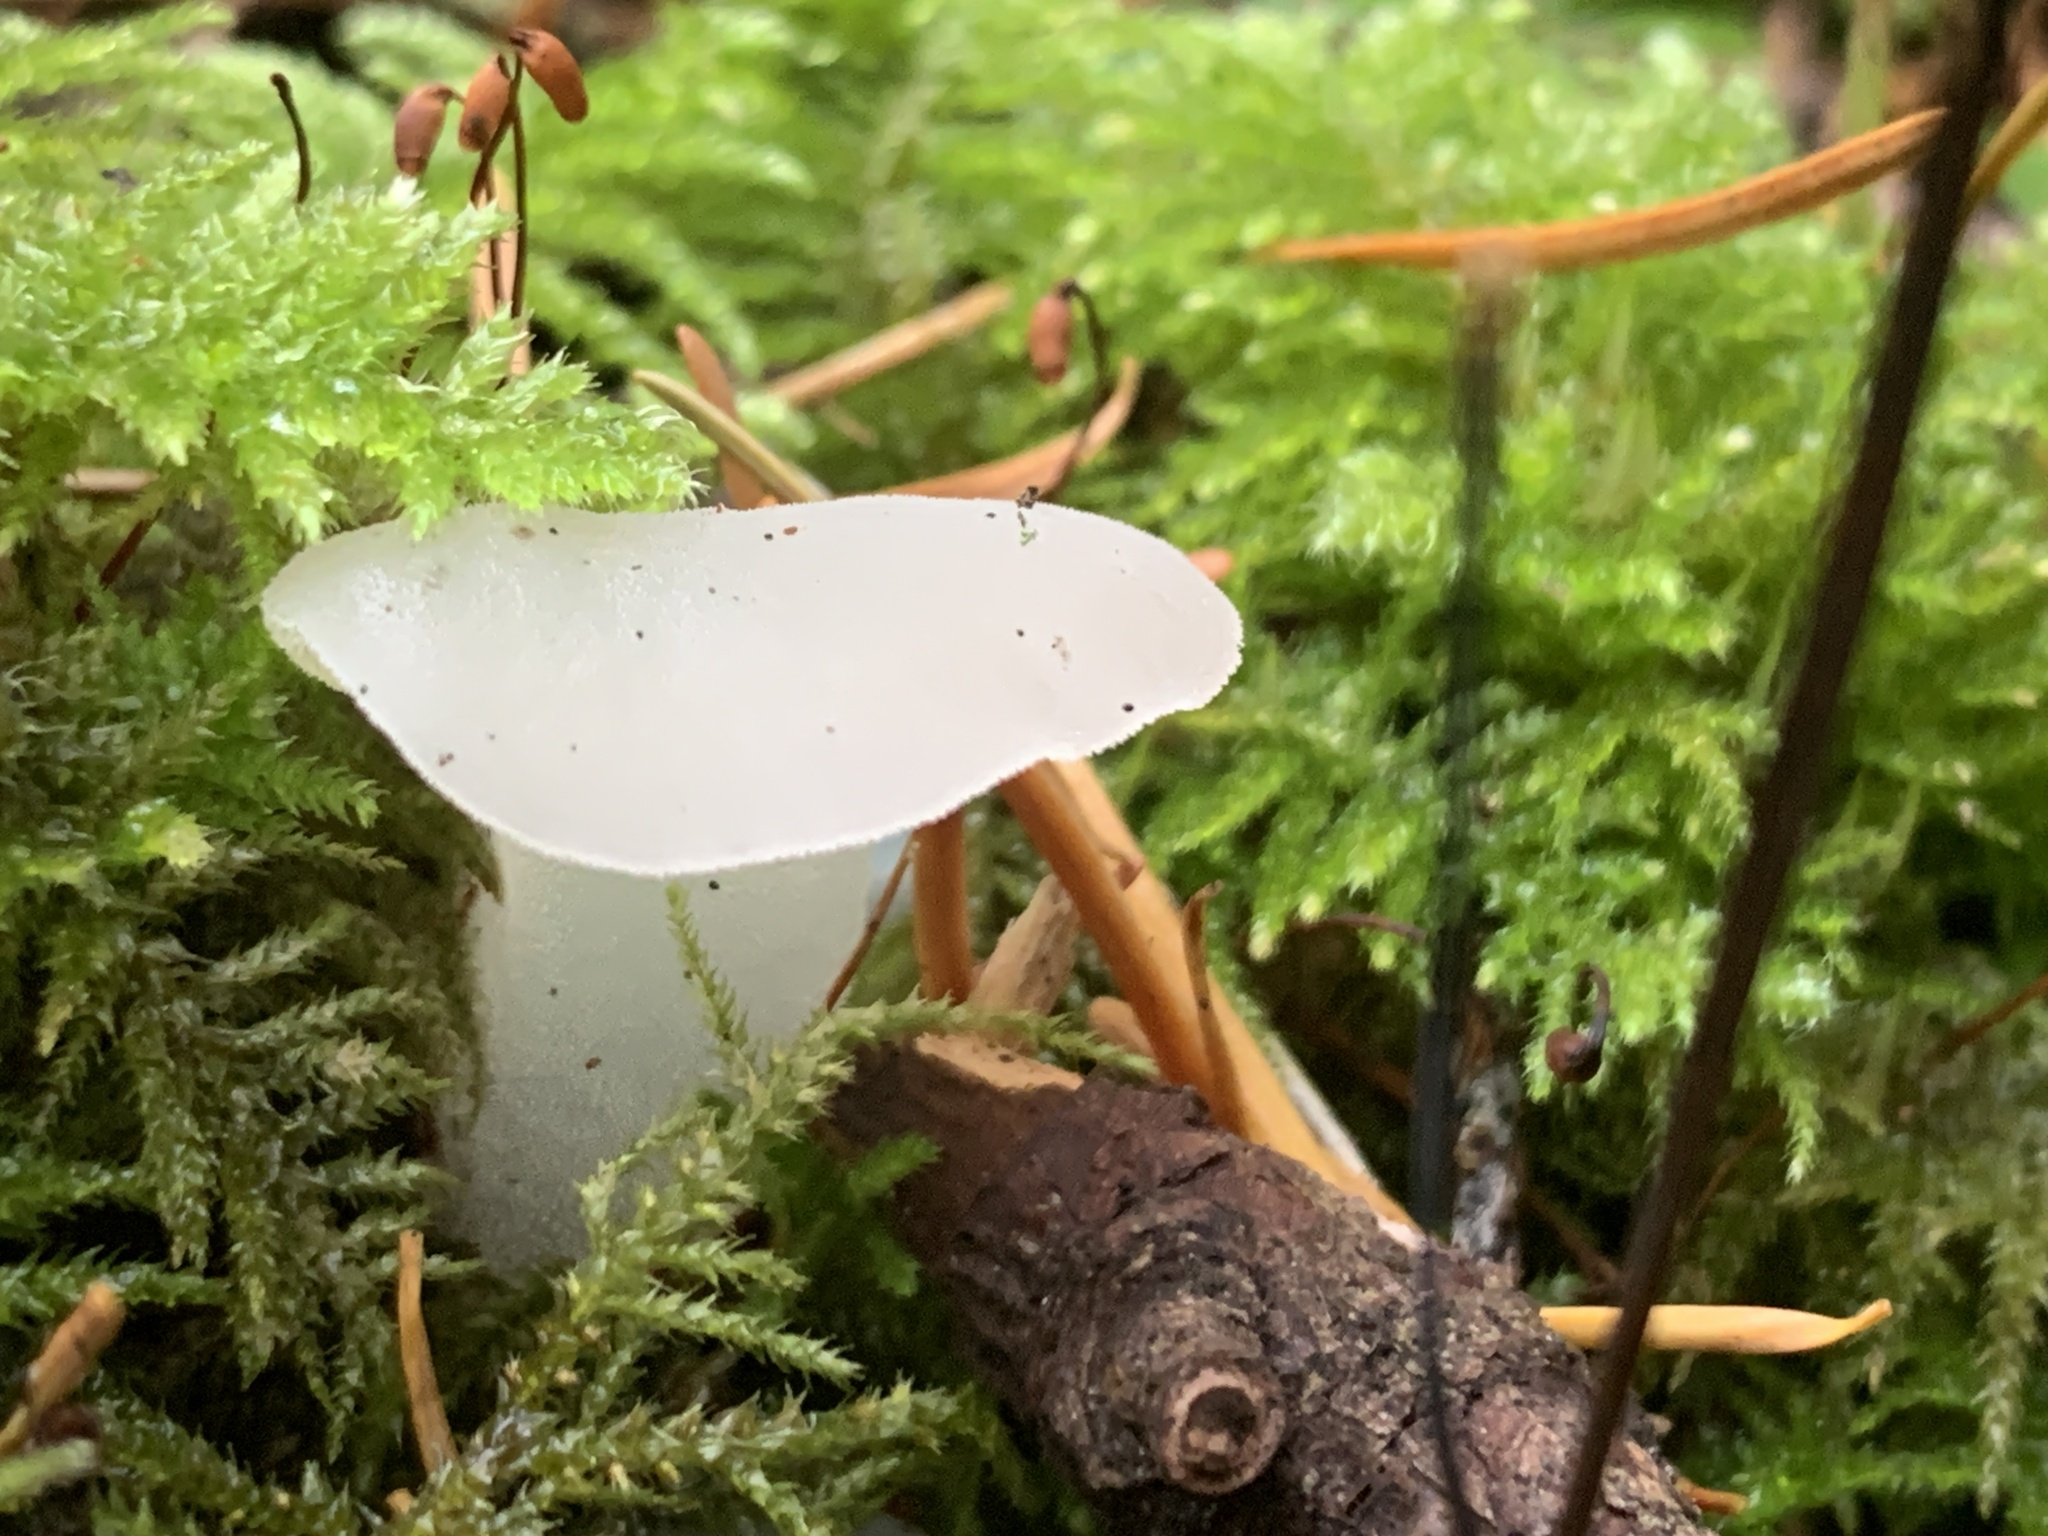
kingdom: Fungi
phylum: Basidiomycota
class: Agaricomycetes
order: Auriculariales
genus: Pseudohydnum
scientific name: Pseudohydnum gelatinosum
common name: Jelly tongue
